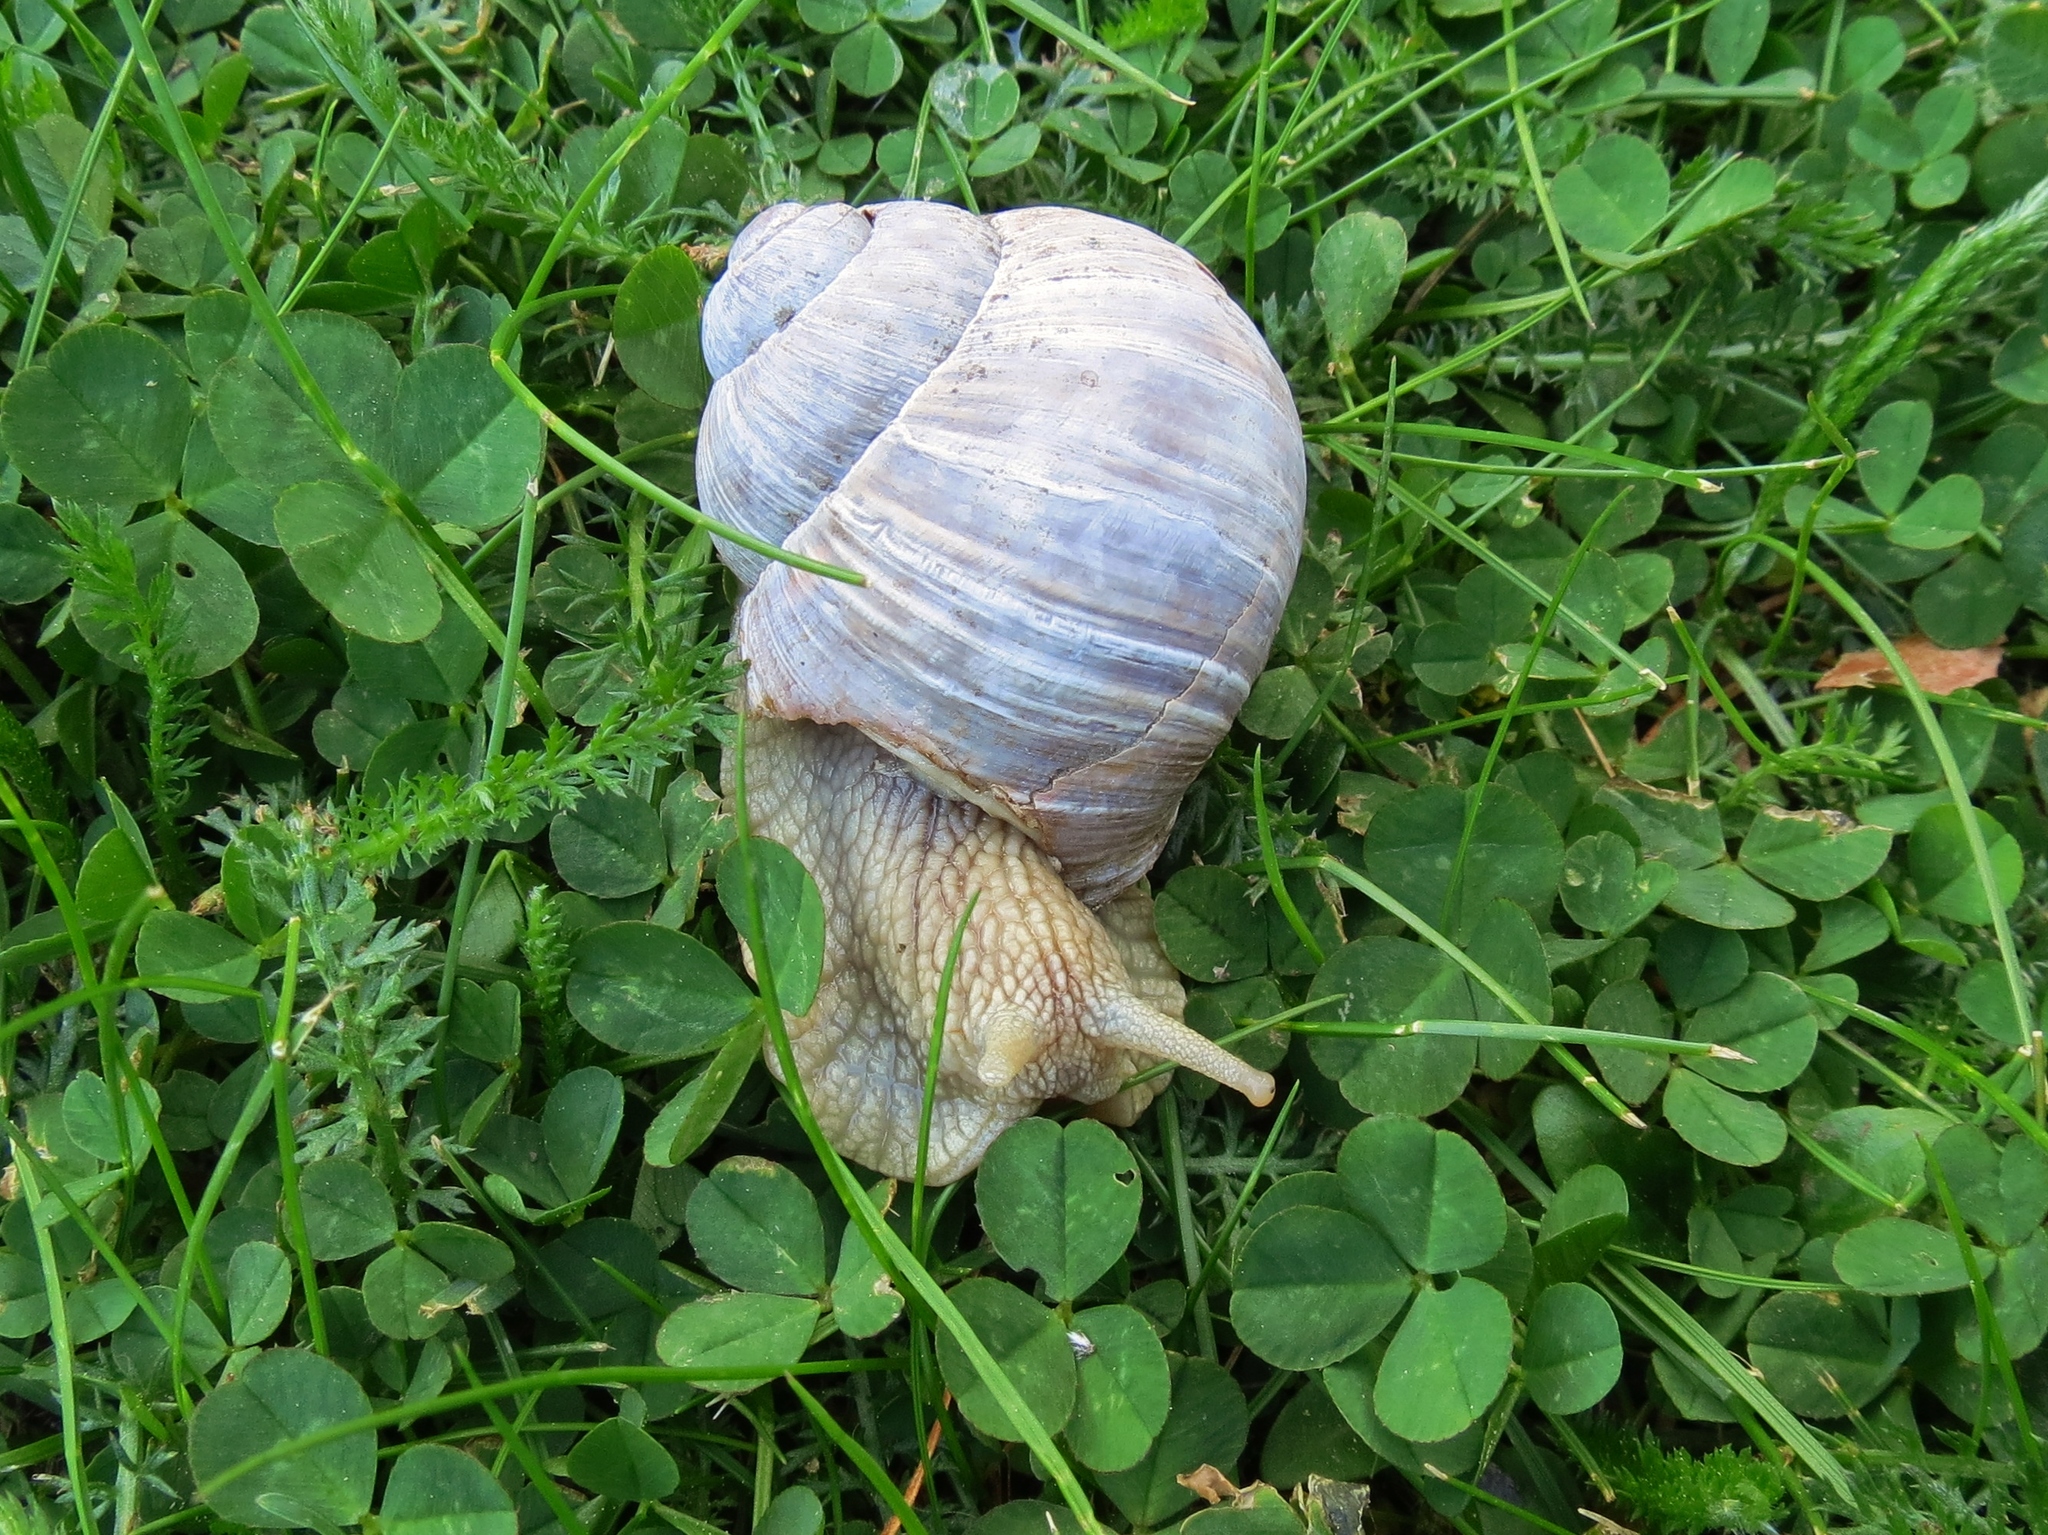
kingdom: Animalia
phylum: Mollusca
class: Gastropoda
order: Stylommatophora
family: Helicidae
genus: Helix
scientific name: Helix pomatia
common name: Roman snail
